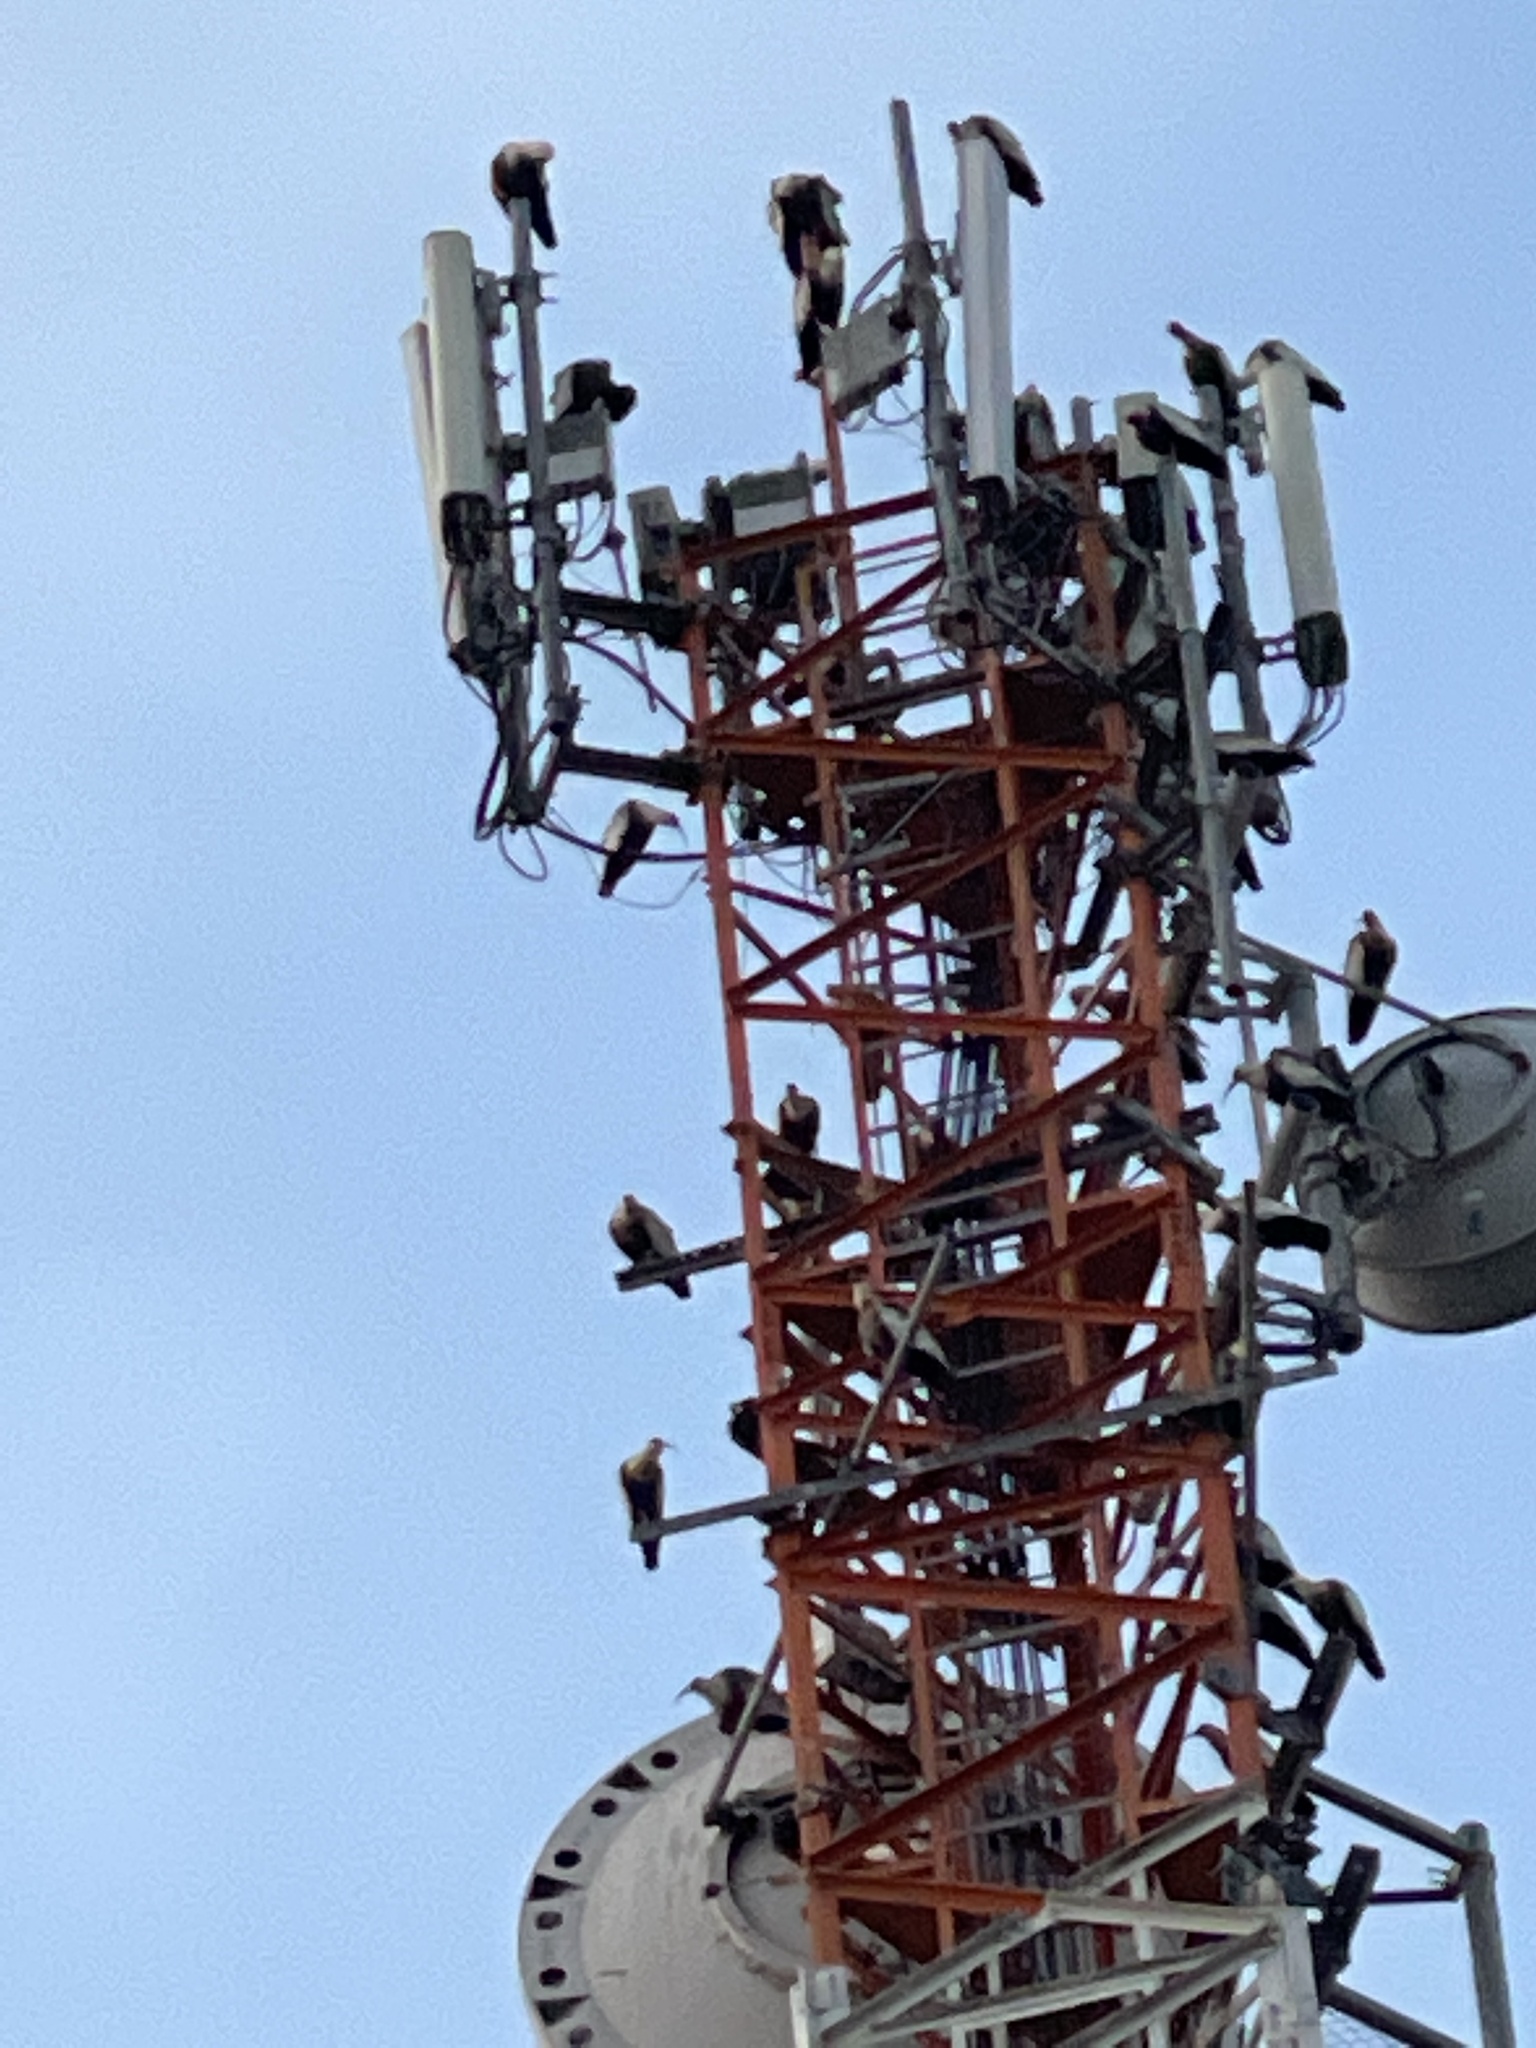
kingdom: Animalia
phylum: Chordata
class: Aves
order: Pelecaniformes
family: Threskiornithidae
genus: Theristicus
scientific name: Theristicus caudatus
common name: Buff-necked ibis
